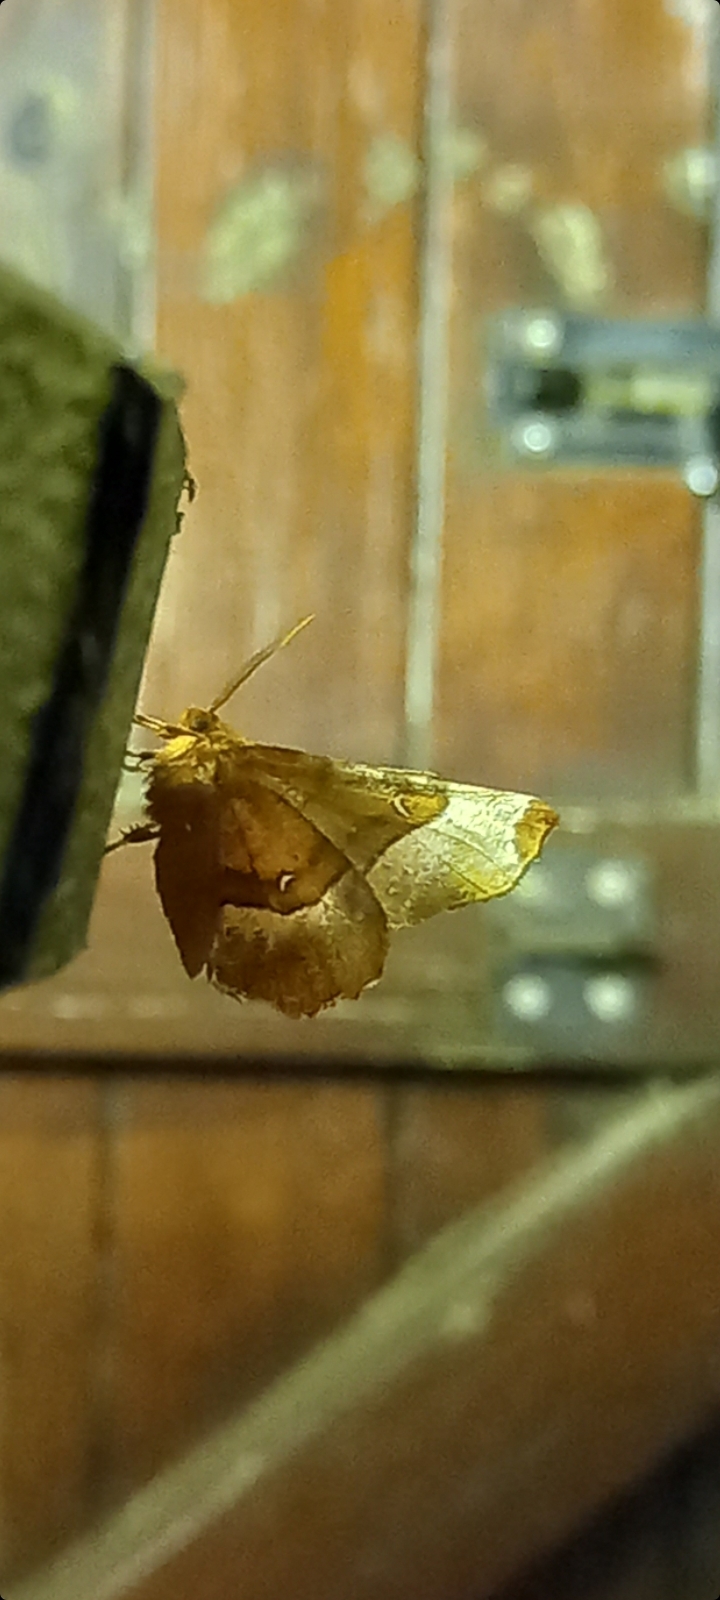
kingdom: Animalia
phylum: Arthropoda
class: Insecta
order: Lepidoptera
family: Geometridae
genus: Selenia
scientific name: Selenia tetralunaria
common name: Purple thorn
